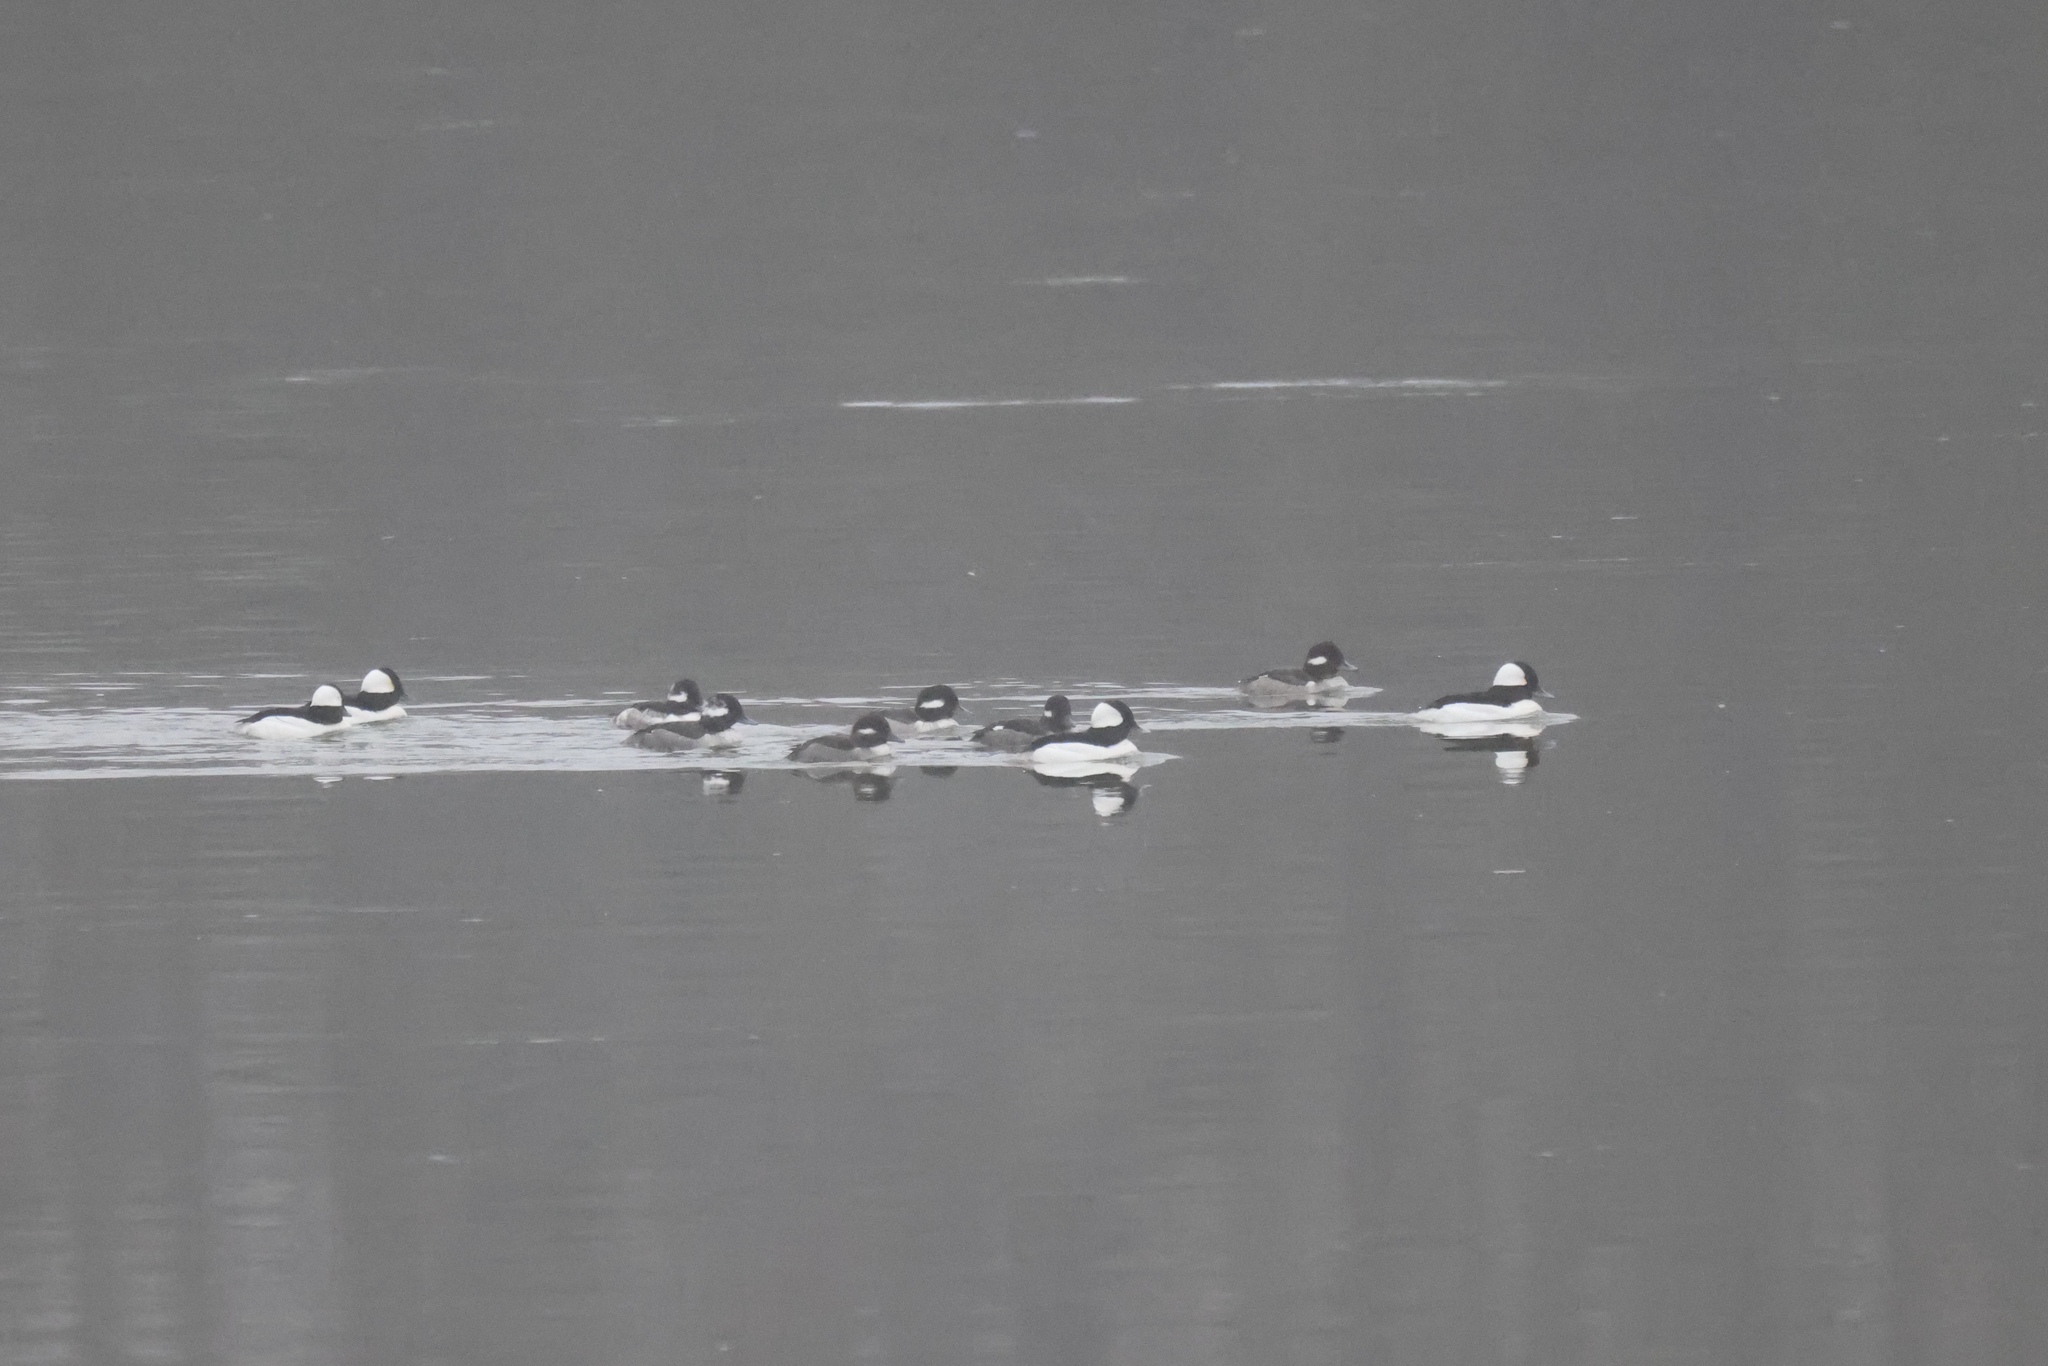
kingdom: Animalia
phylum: Chordata
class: Aves
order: Anseriformes
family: Anatidae
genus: Bucephala
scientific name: Bucephala albeola
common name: Bufflehead
